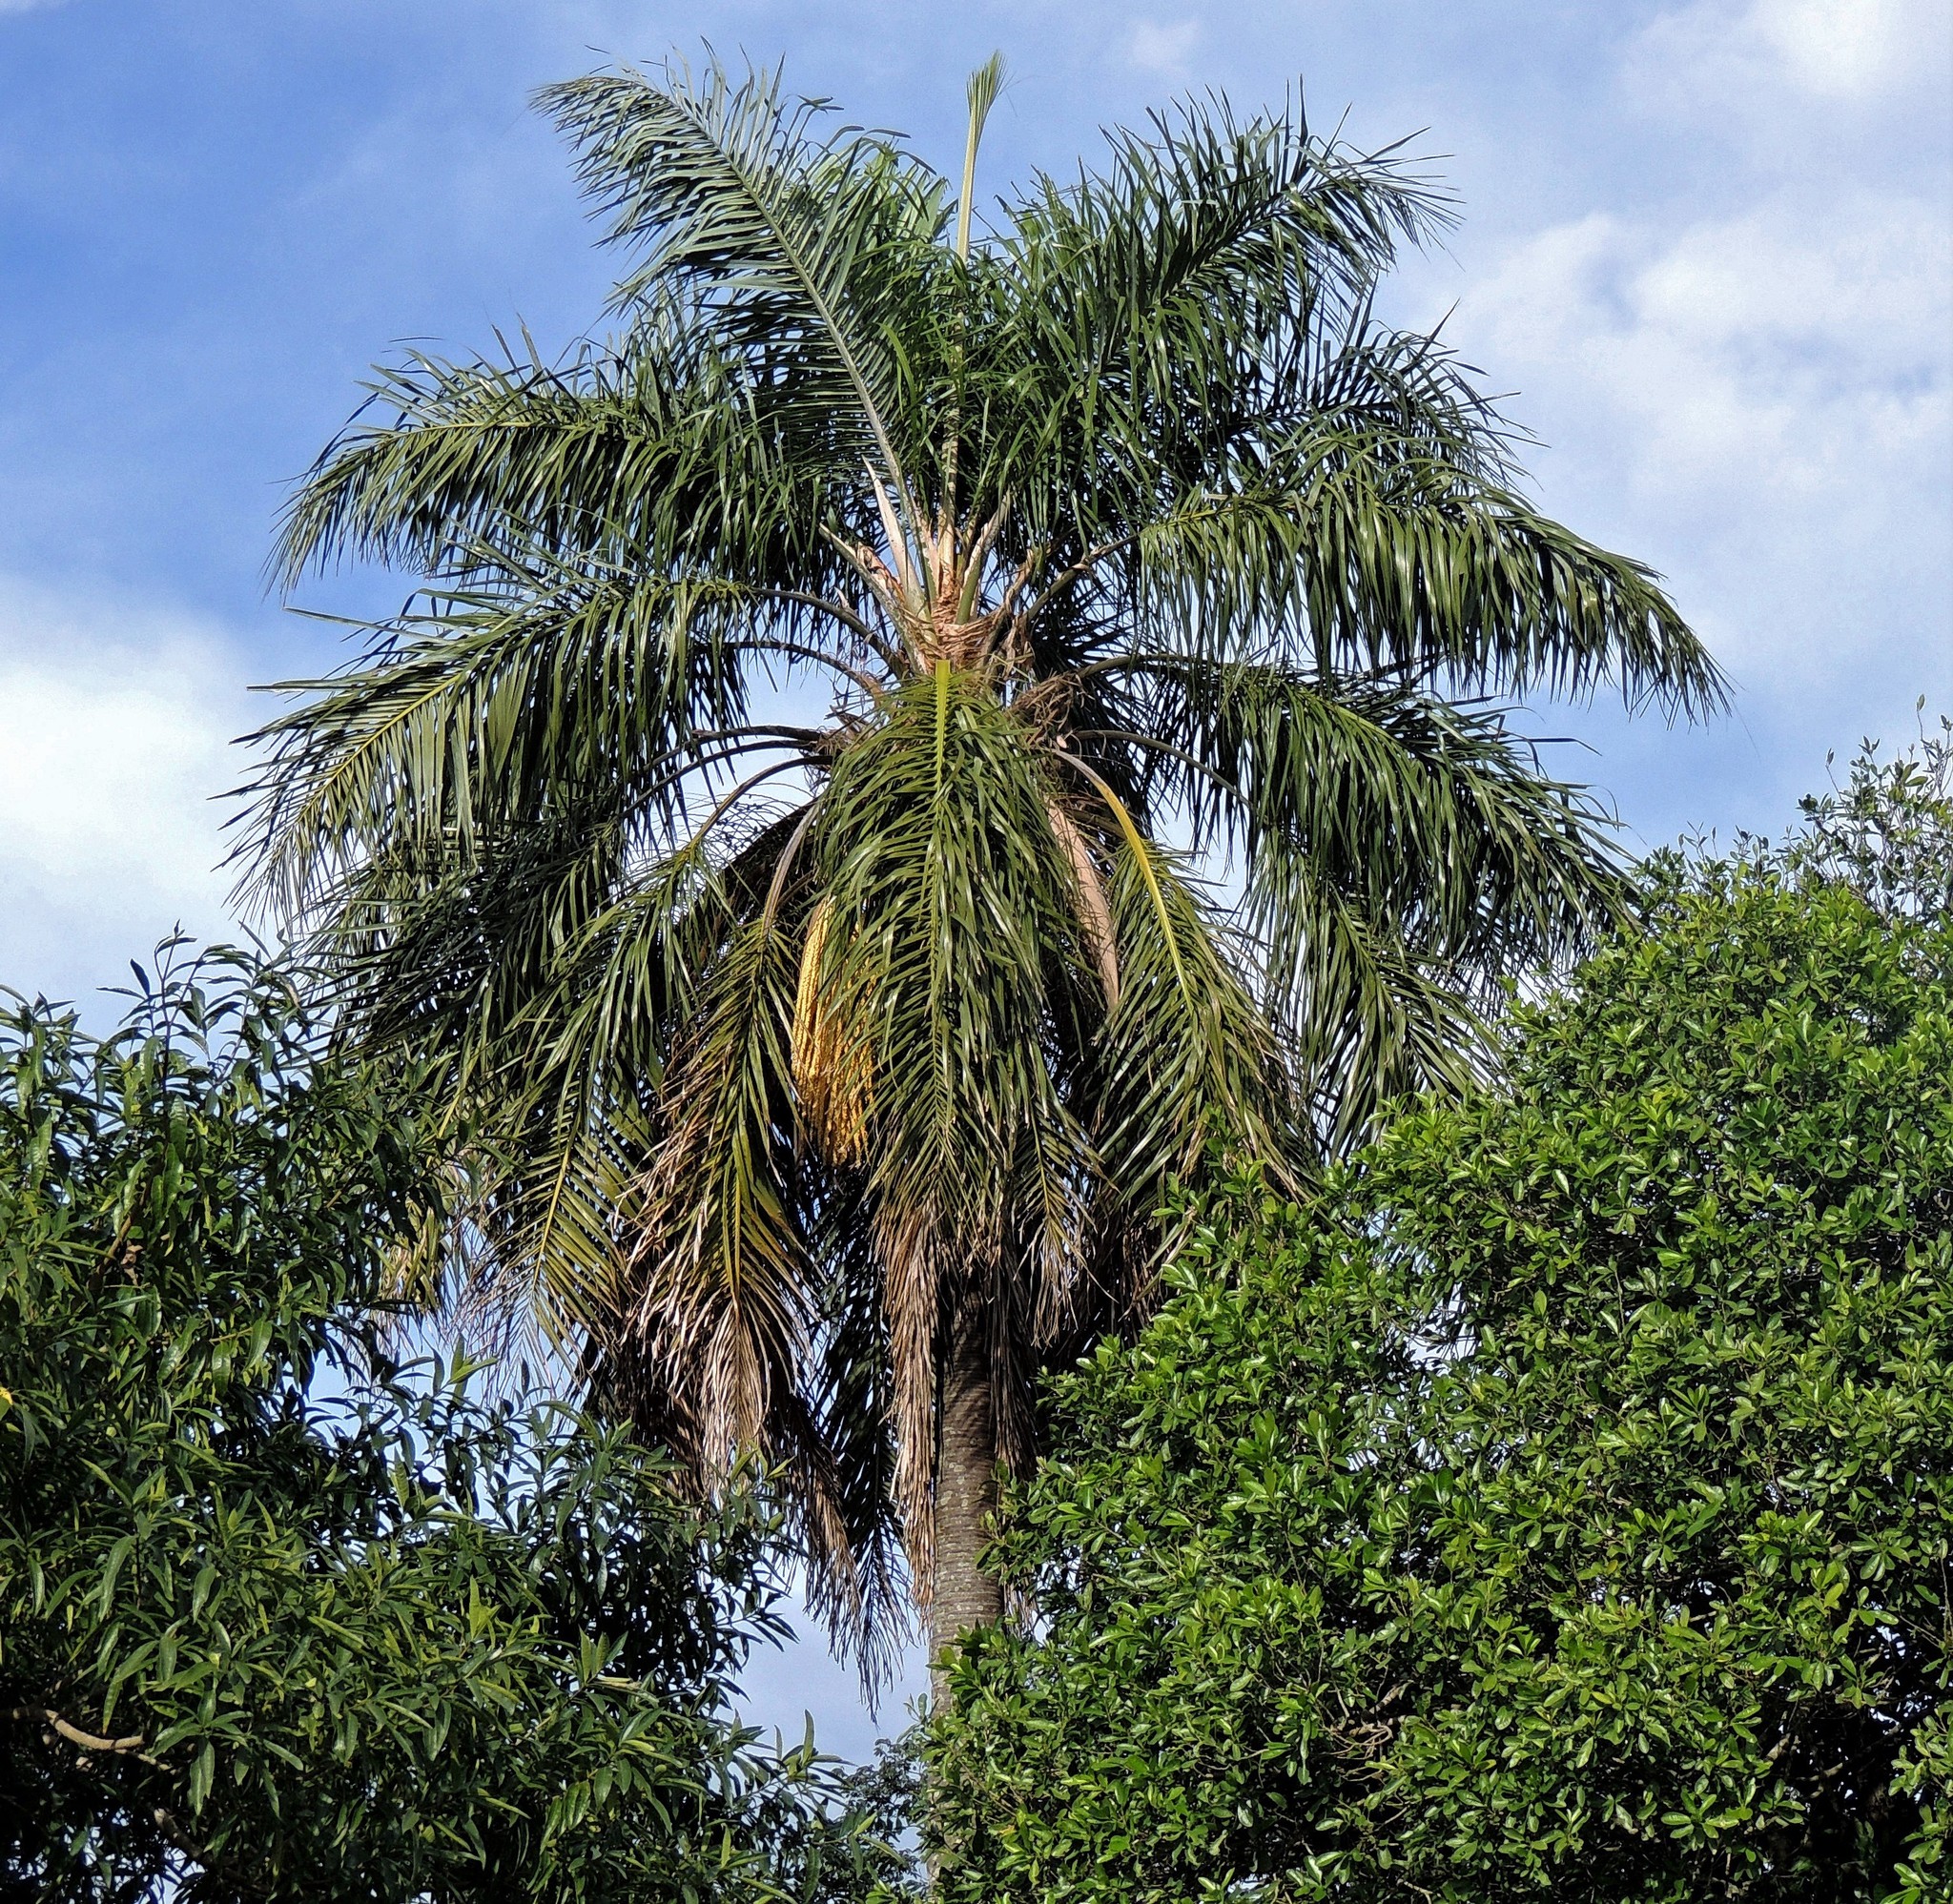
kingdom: Plantae
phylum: Tracheophyta
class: Liliopsida
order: Arecales
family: Arecaceae
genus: Syagrus
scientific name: Syagrus romanzoffiana
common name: Queen palm
